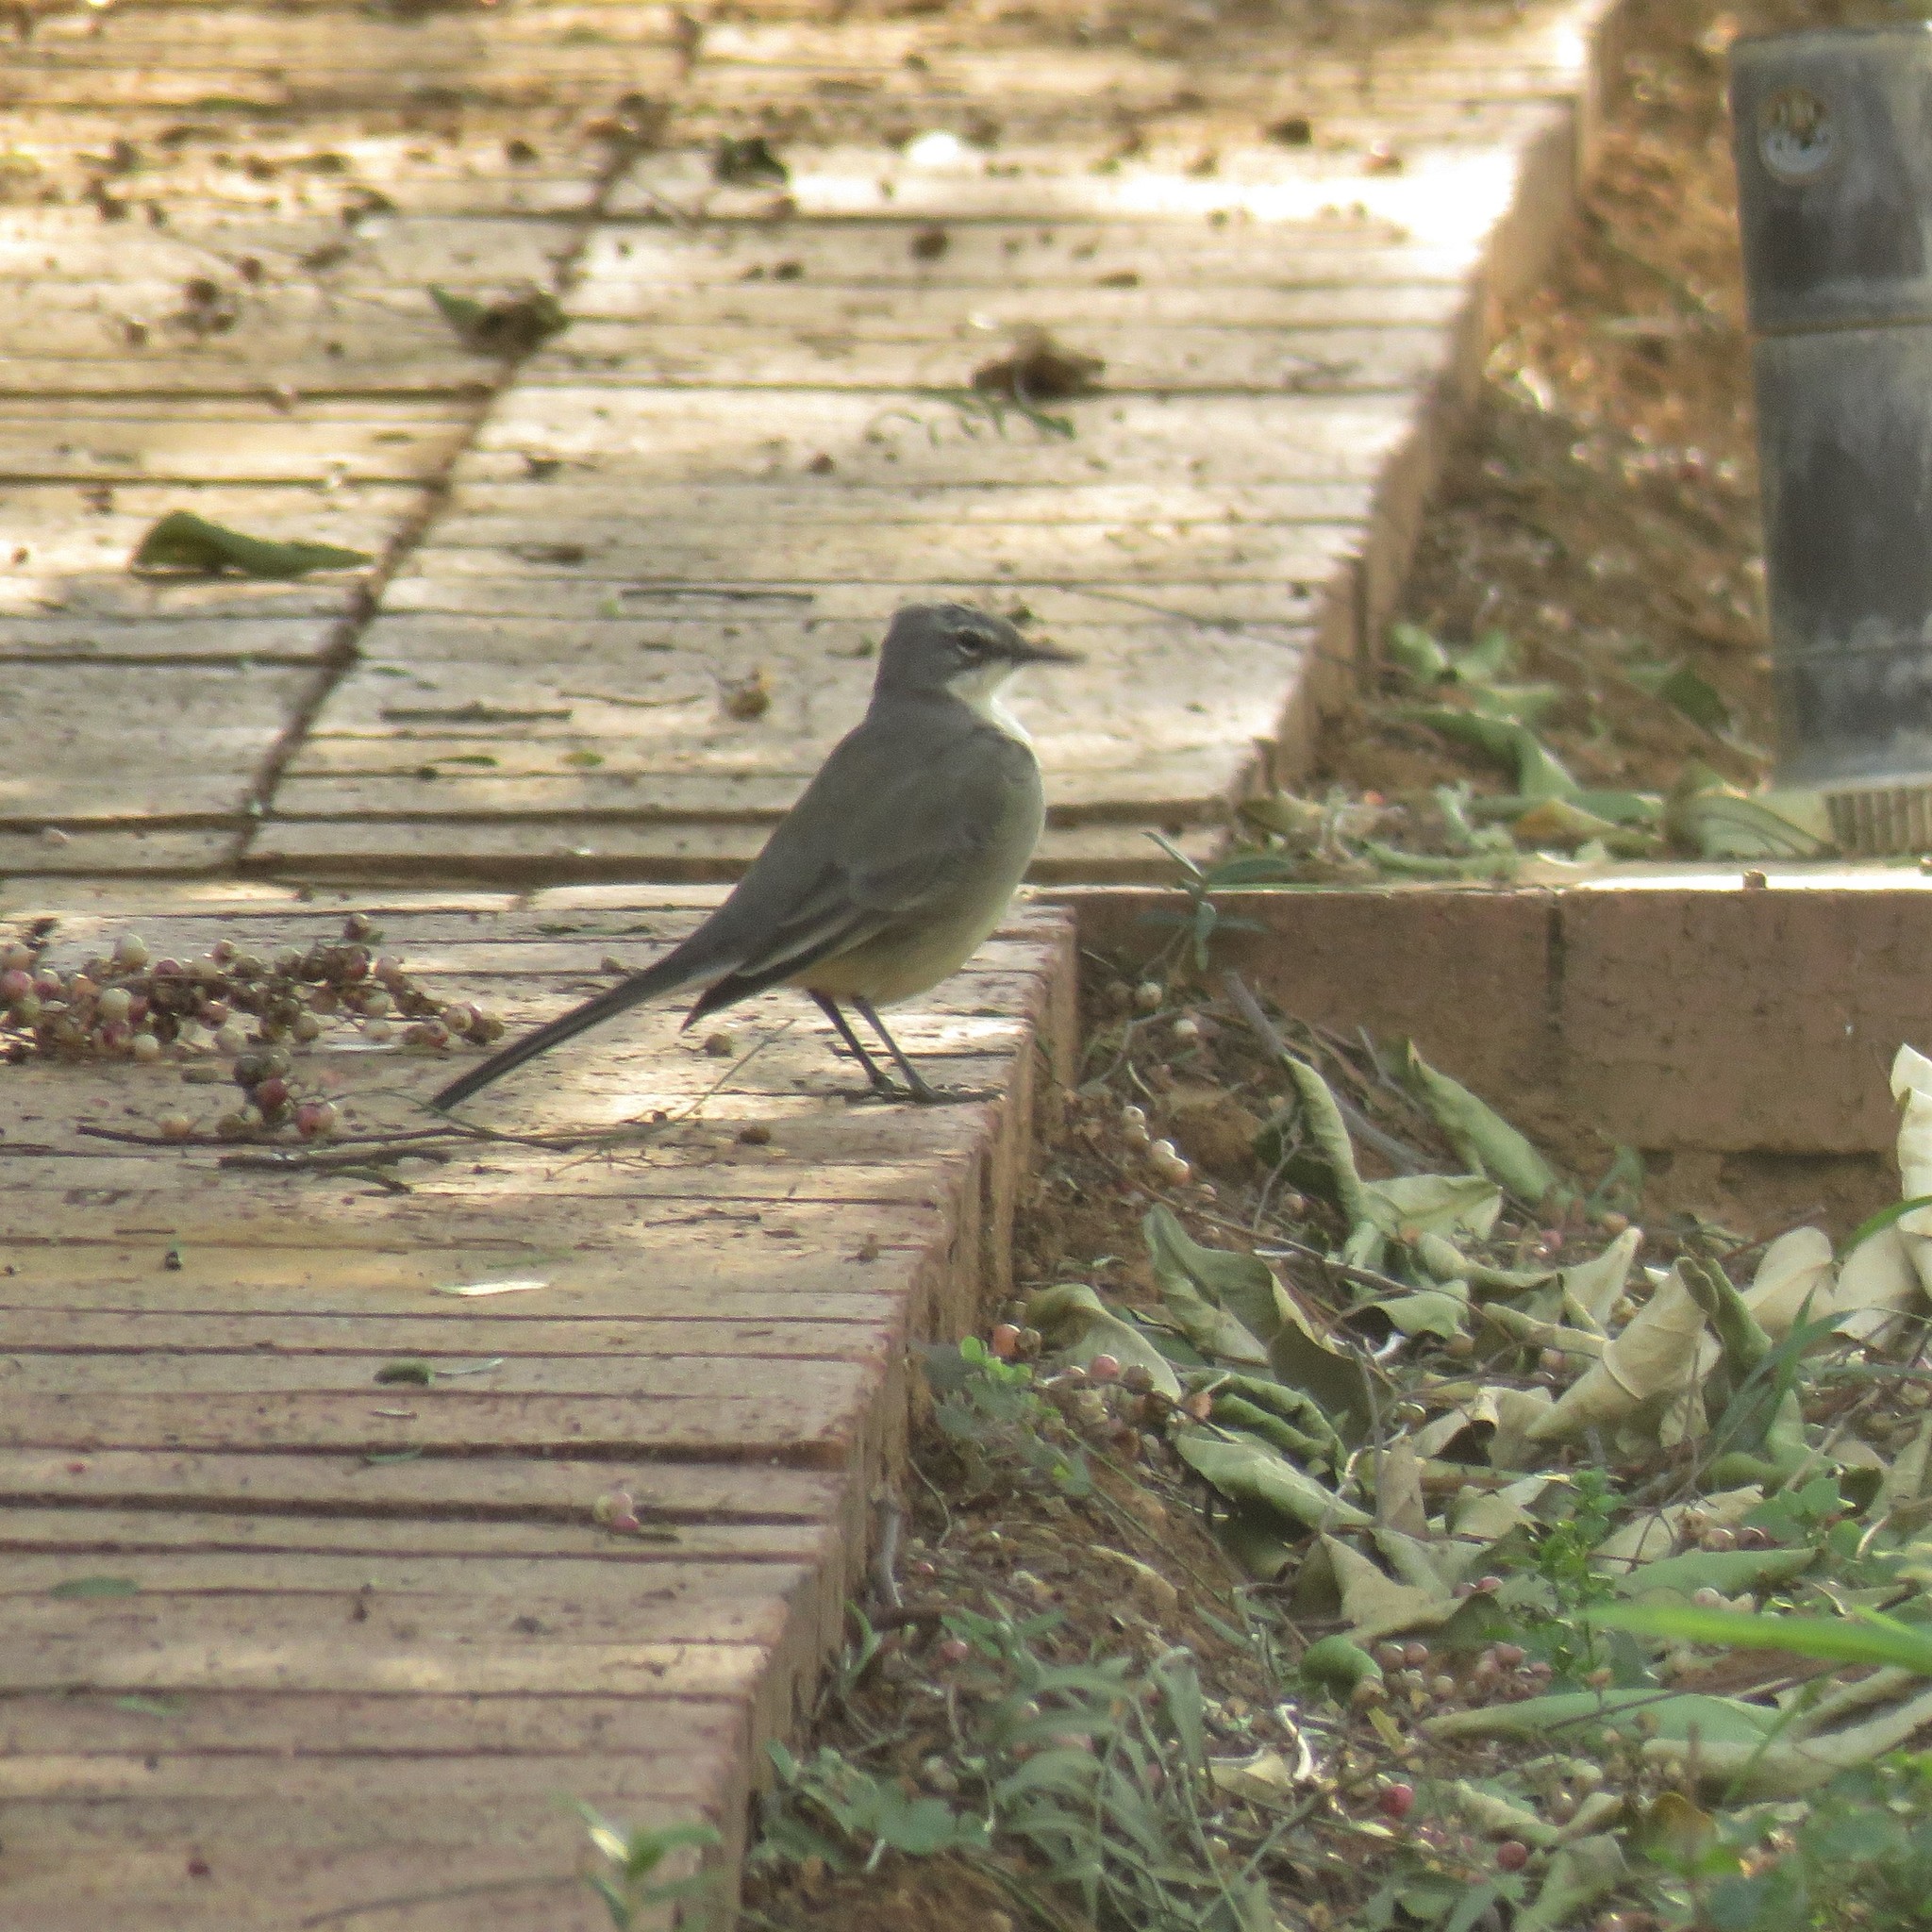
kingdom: Animalia
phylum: Chordata
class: Aves
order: Passeriformes
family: Motacillidae
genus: Motacilla
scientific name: Motacilla capensis
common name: Cape wagtail
